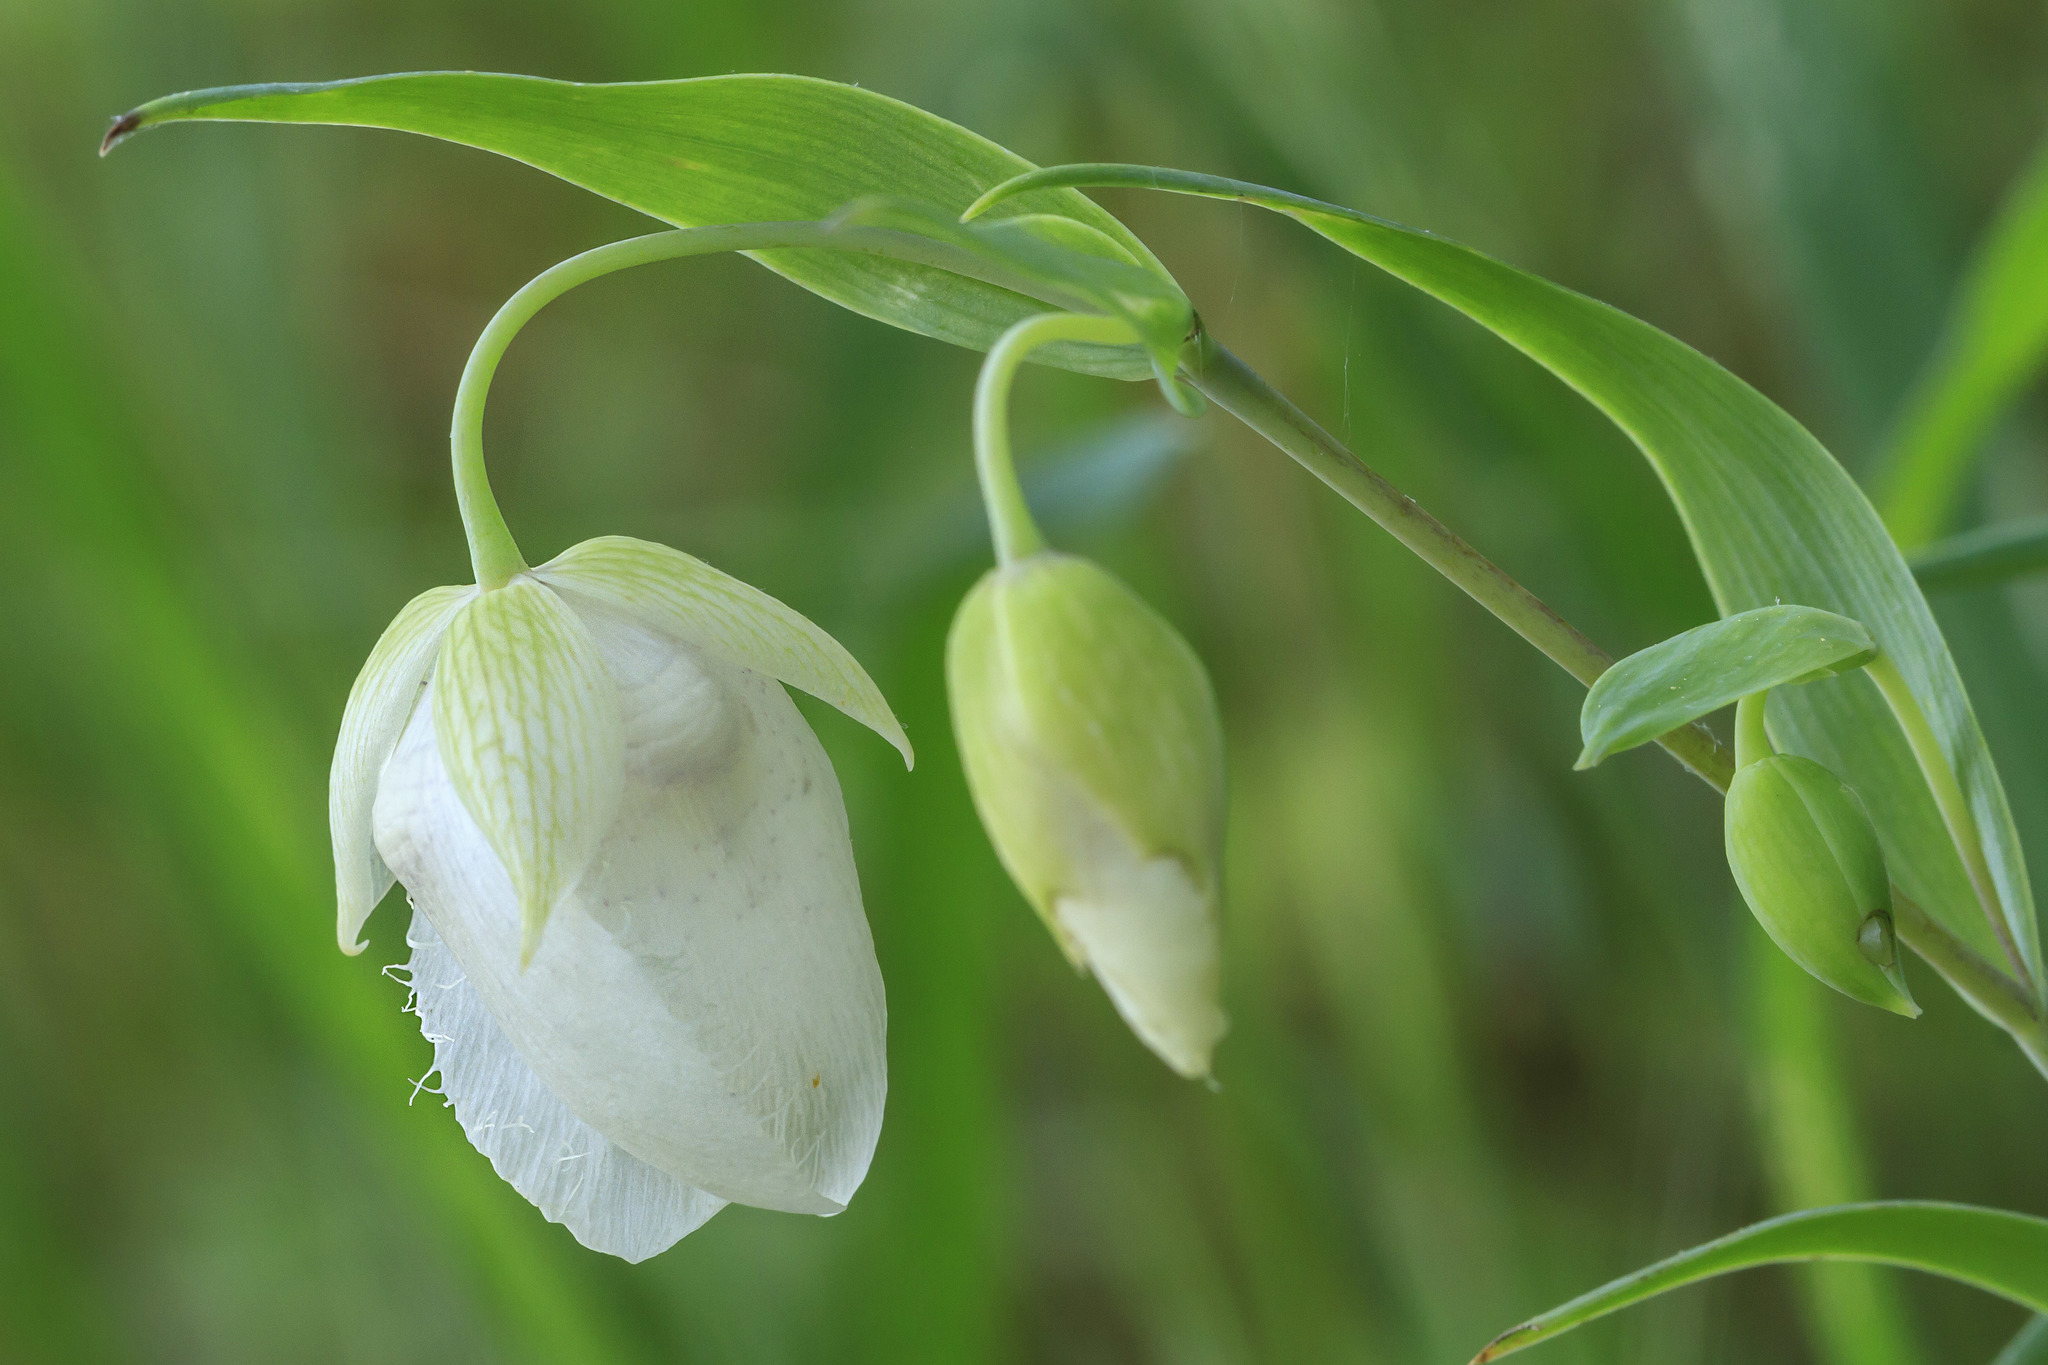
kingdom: Plantae
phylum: Tracheophyta
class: Liliopsida
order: Liliales
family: Liliaceae
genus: Calochortus
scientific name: Calochortus albus
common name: Fairy-lantern
